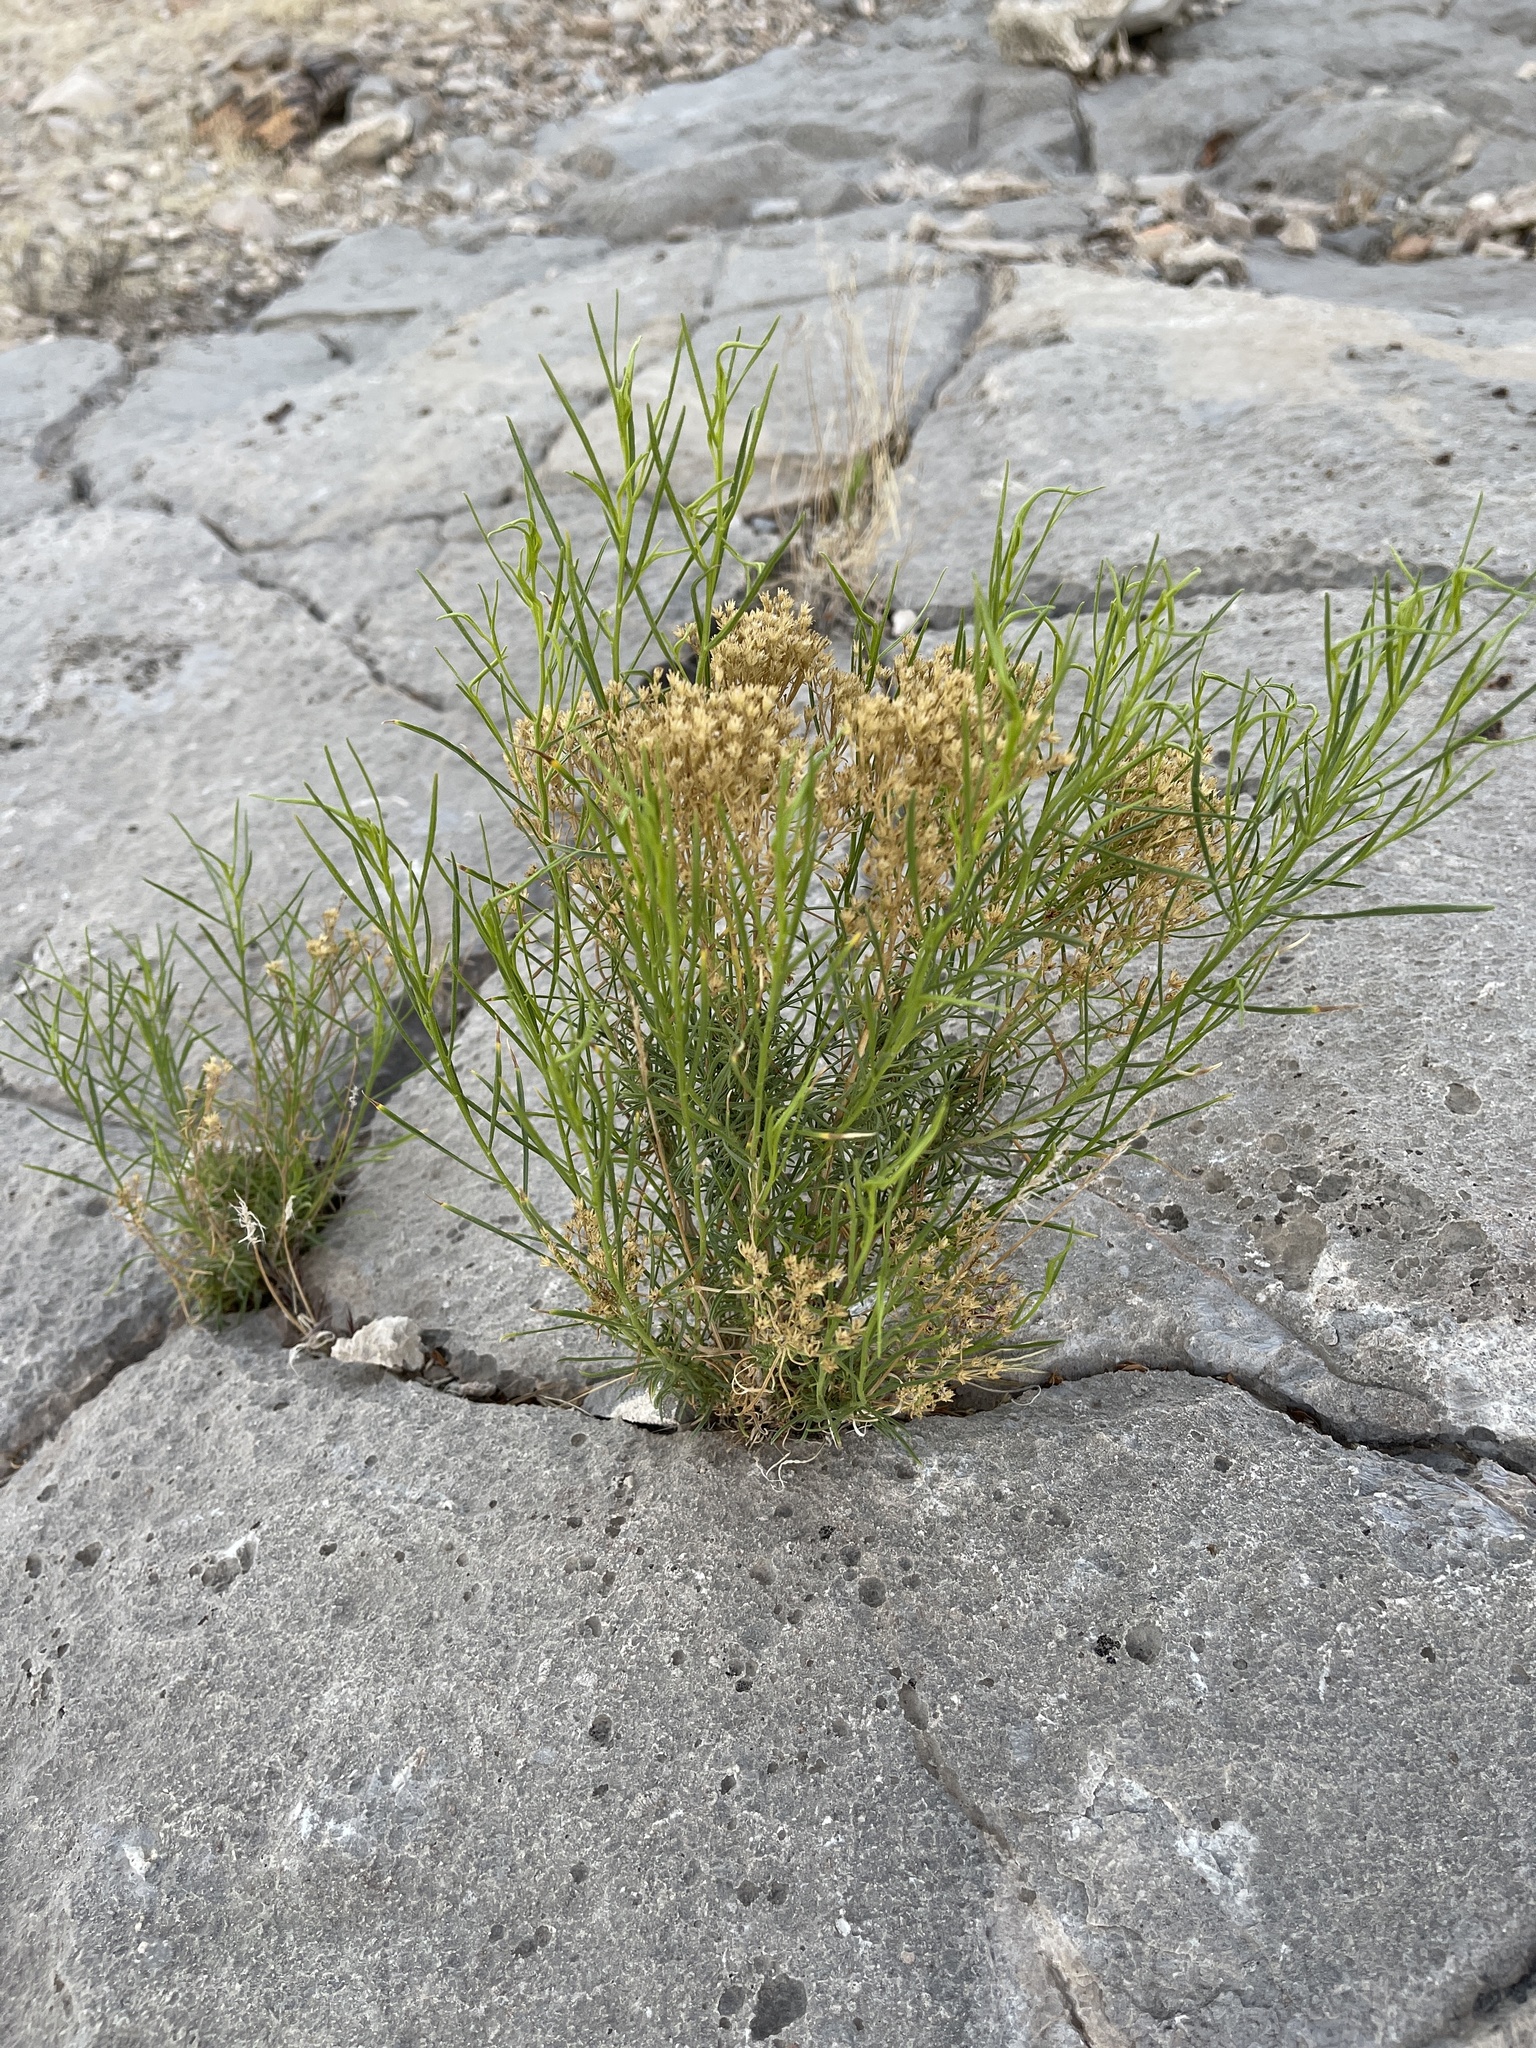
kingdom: Plantae
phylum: Tracheophyta
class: Magnoliopsida
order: Asterales
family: Asteraceae
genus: Gutierrezia
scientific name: Gutierrezia sarothrae
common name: Broom snakeweed
